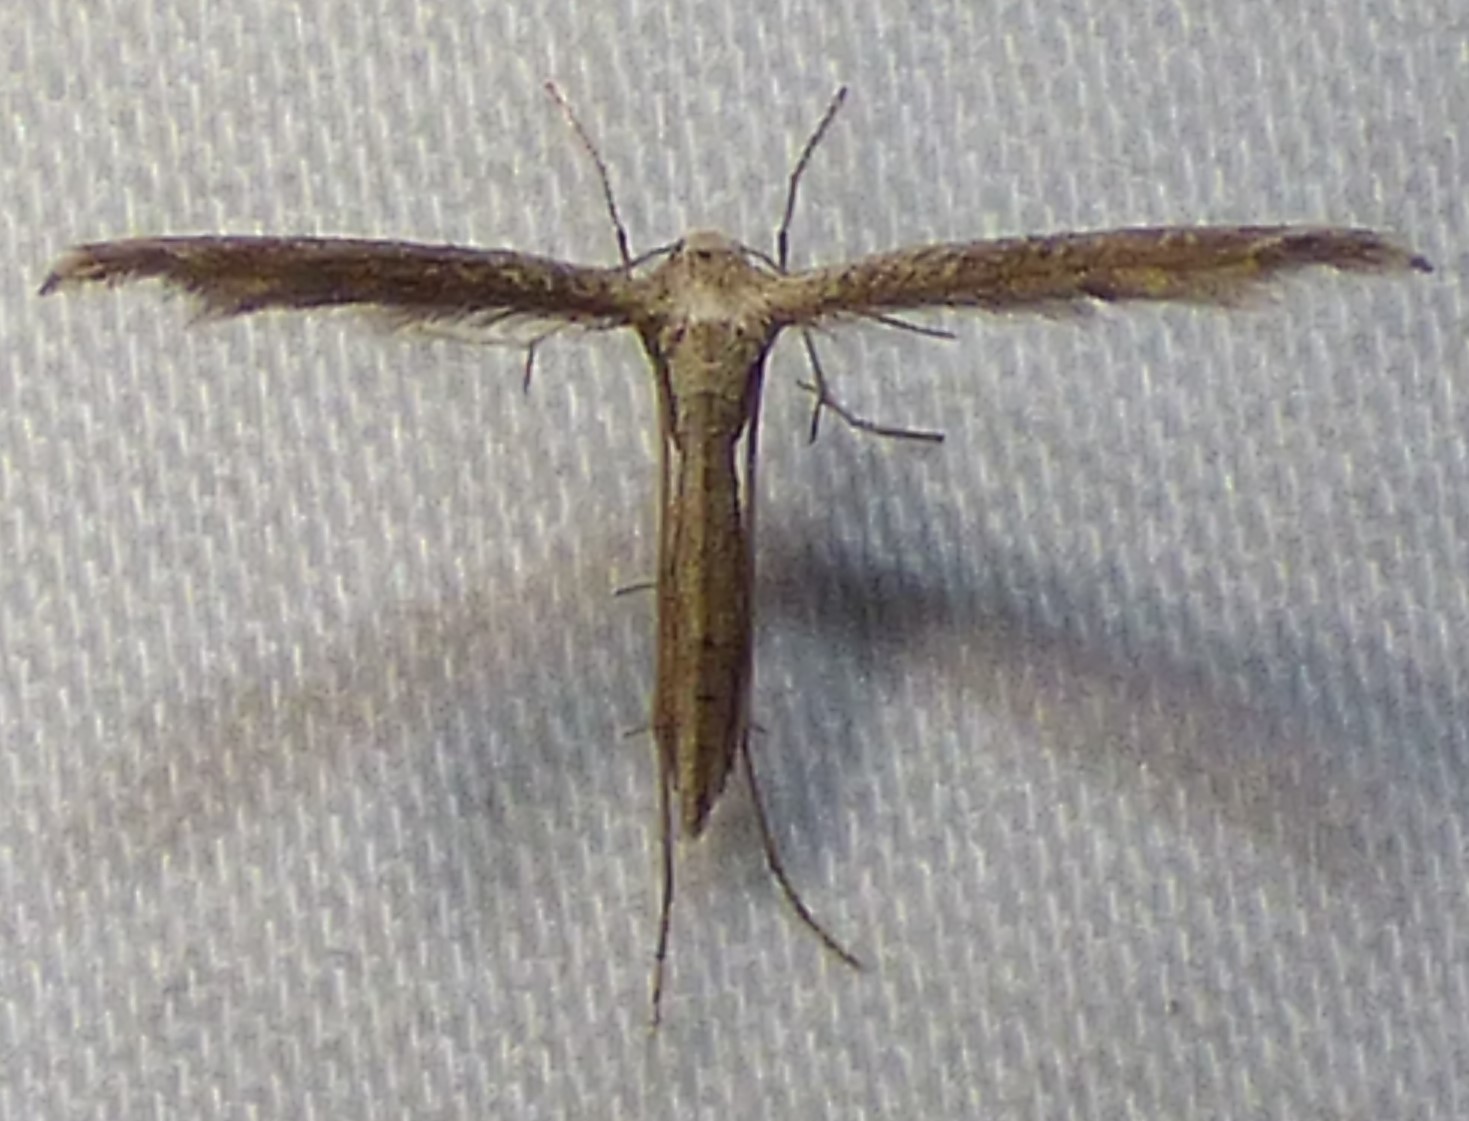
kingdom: Animalia
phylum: Arthropoda
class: Insecta
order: Lepidoptera
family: Pterophoridae
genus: Lioptilodes
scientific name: Lioptilodes albistriolatus
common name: Moth
